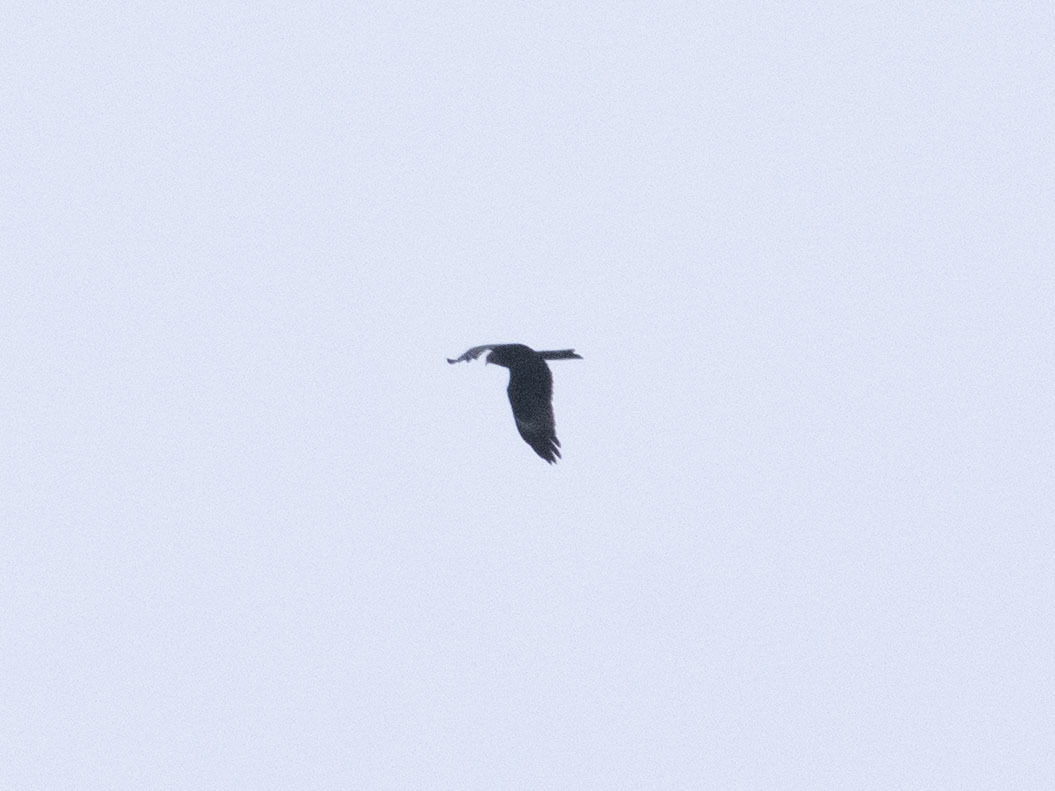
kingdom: Animalia
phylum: Chordata
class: Aves
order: Accipitriformes
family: Accipitridae
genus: Milvus
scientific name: Milvus migrans
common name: Black kite
